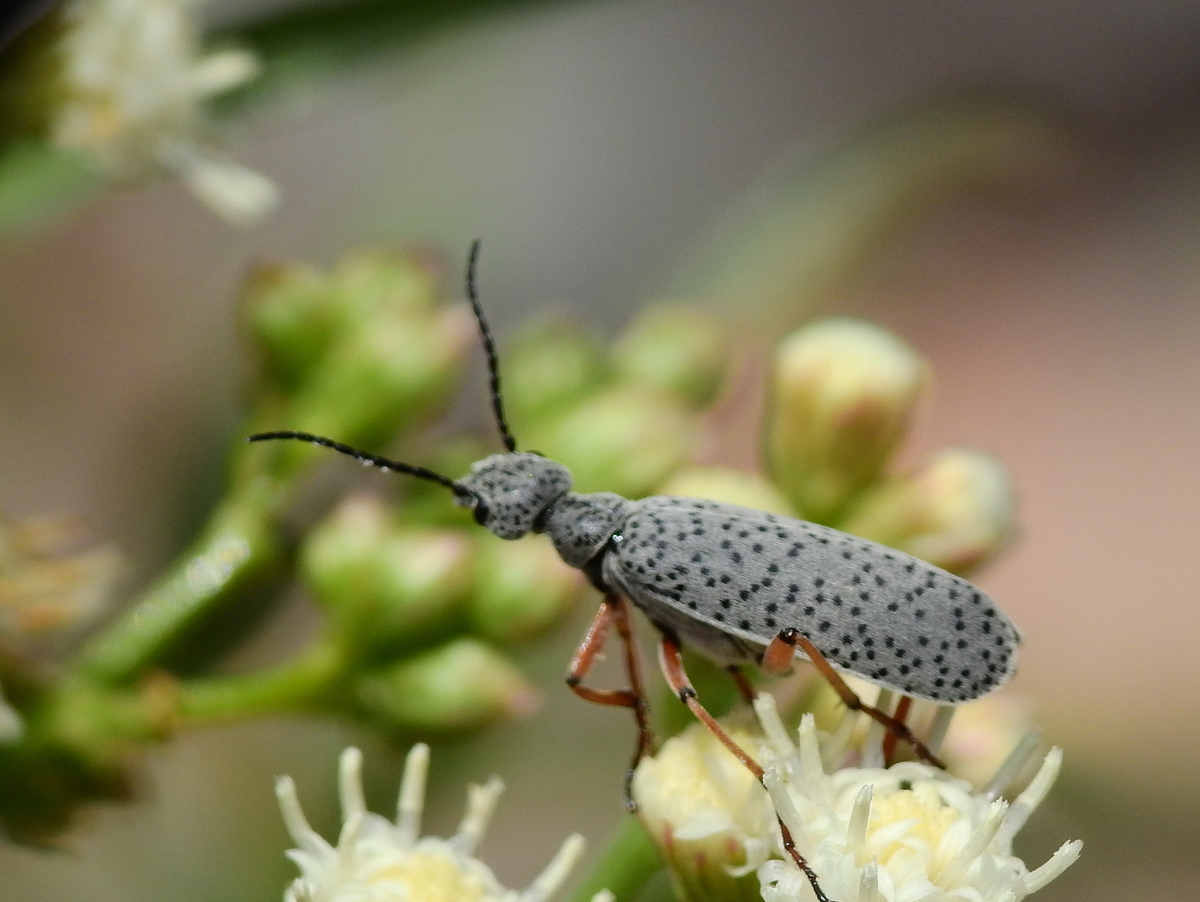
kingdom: Animalia
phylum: Arthropoda
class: Insecta
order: Coleoptera
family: Meloidae
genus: Epicauta
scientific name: Epicauta
